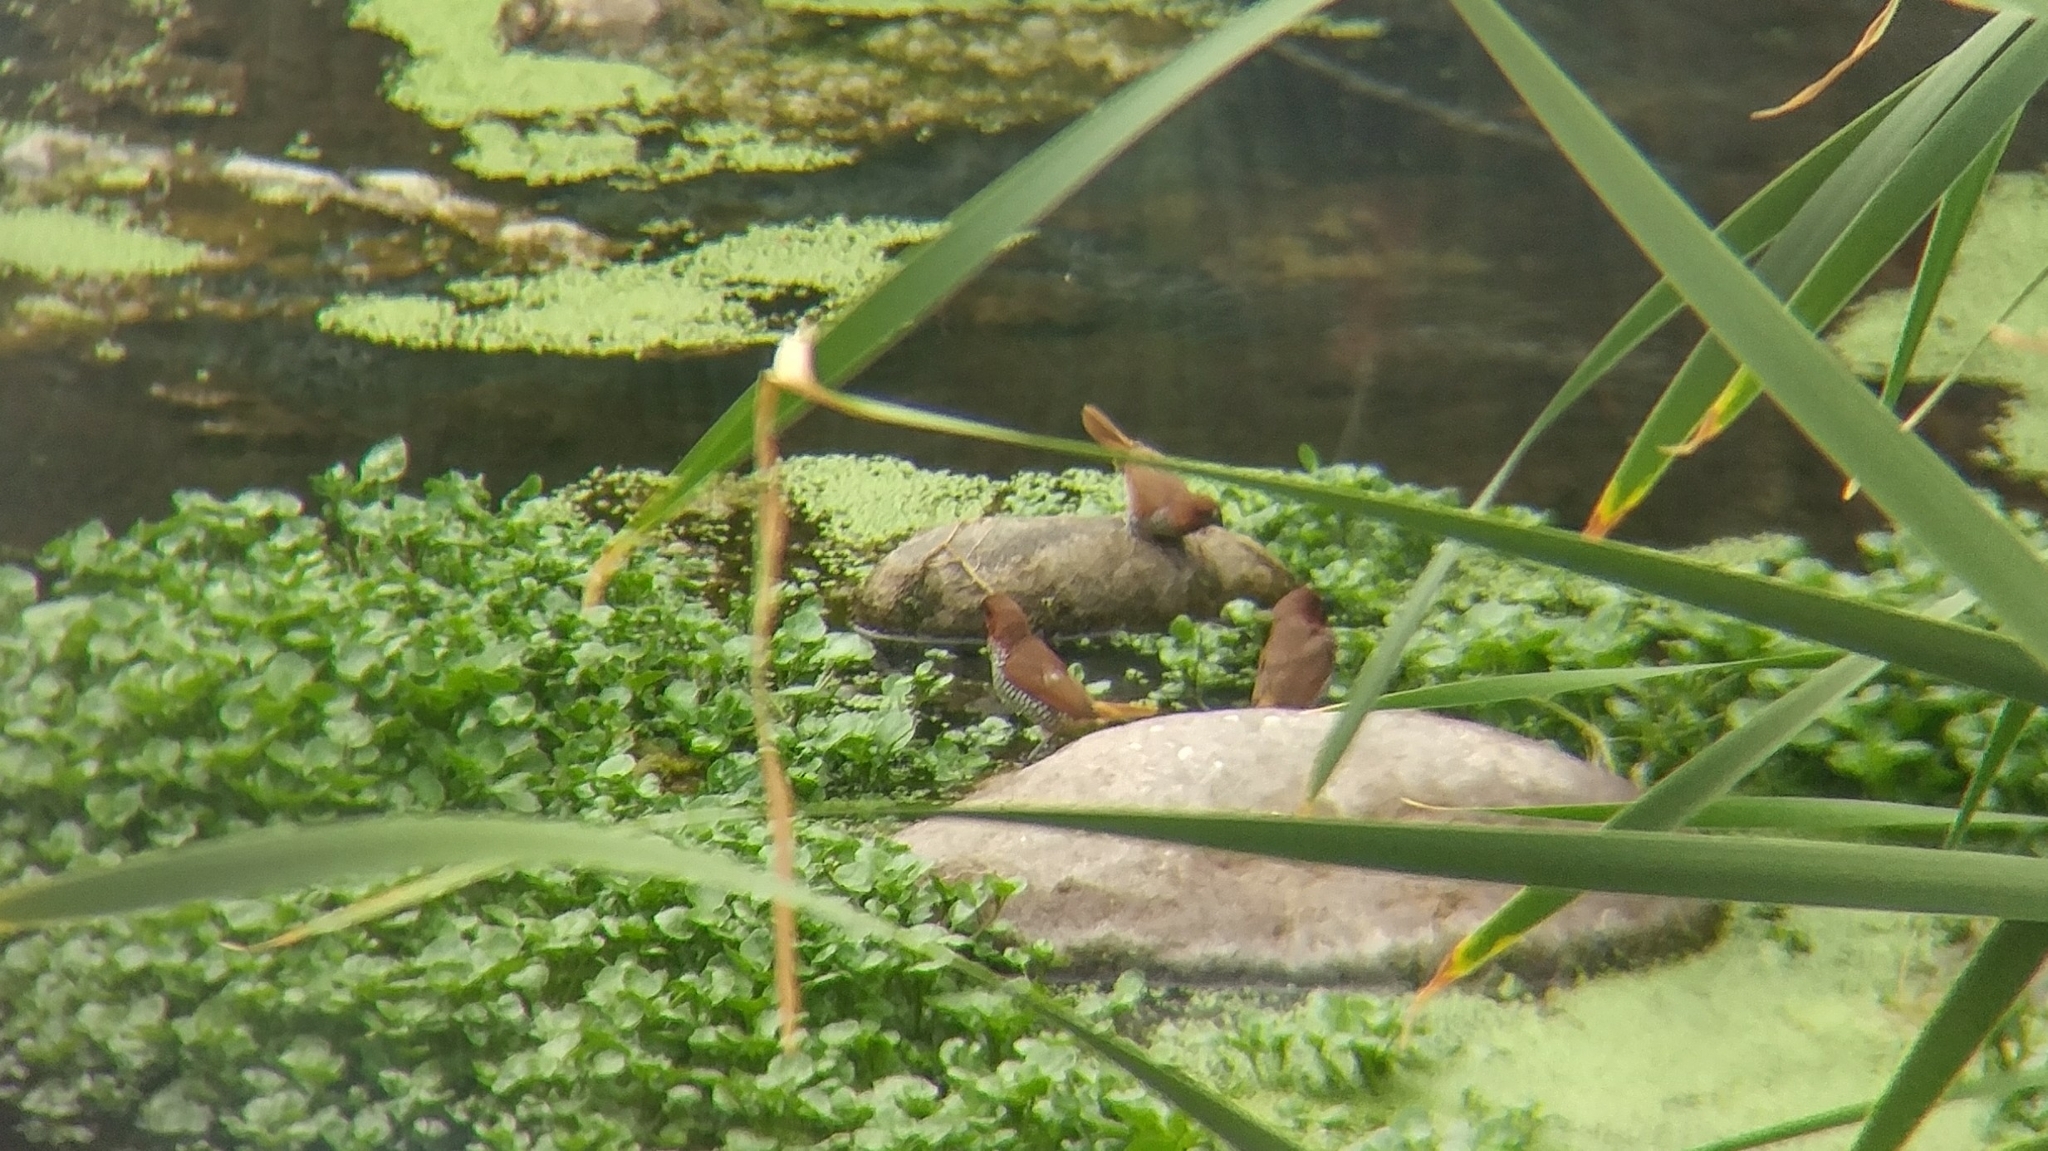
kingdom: Animalia
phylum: Chordata
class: Aves
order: Passeriformes
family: Estrildidae
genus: Lonchura
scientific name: Lonchura punctulata
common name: Scaly-breasted munia
